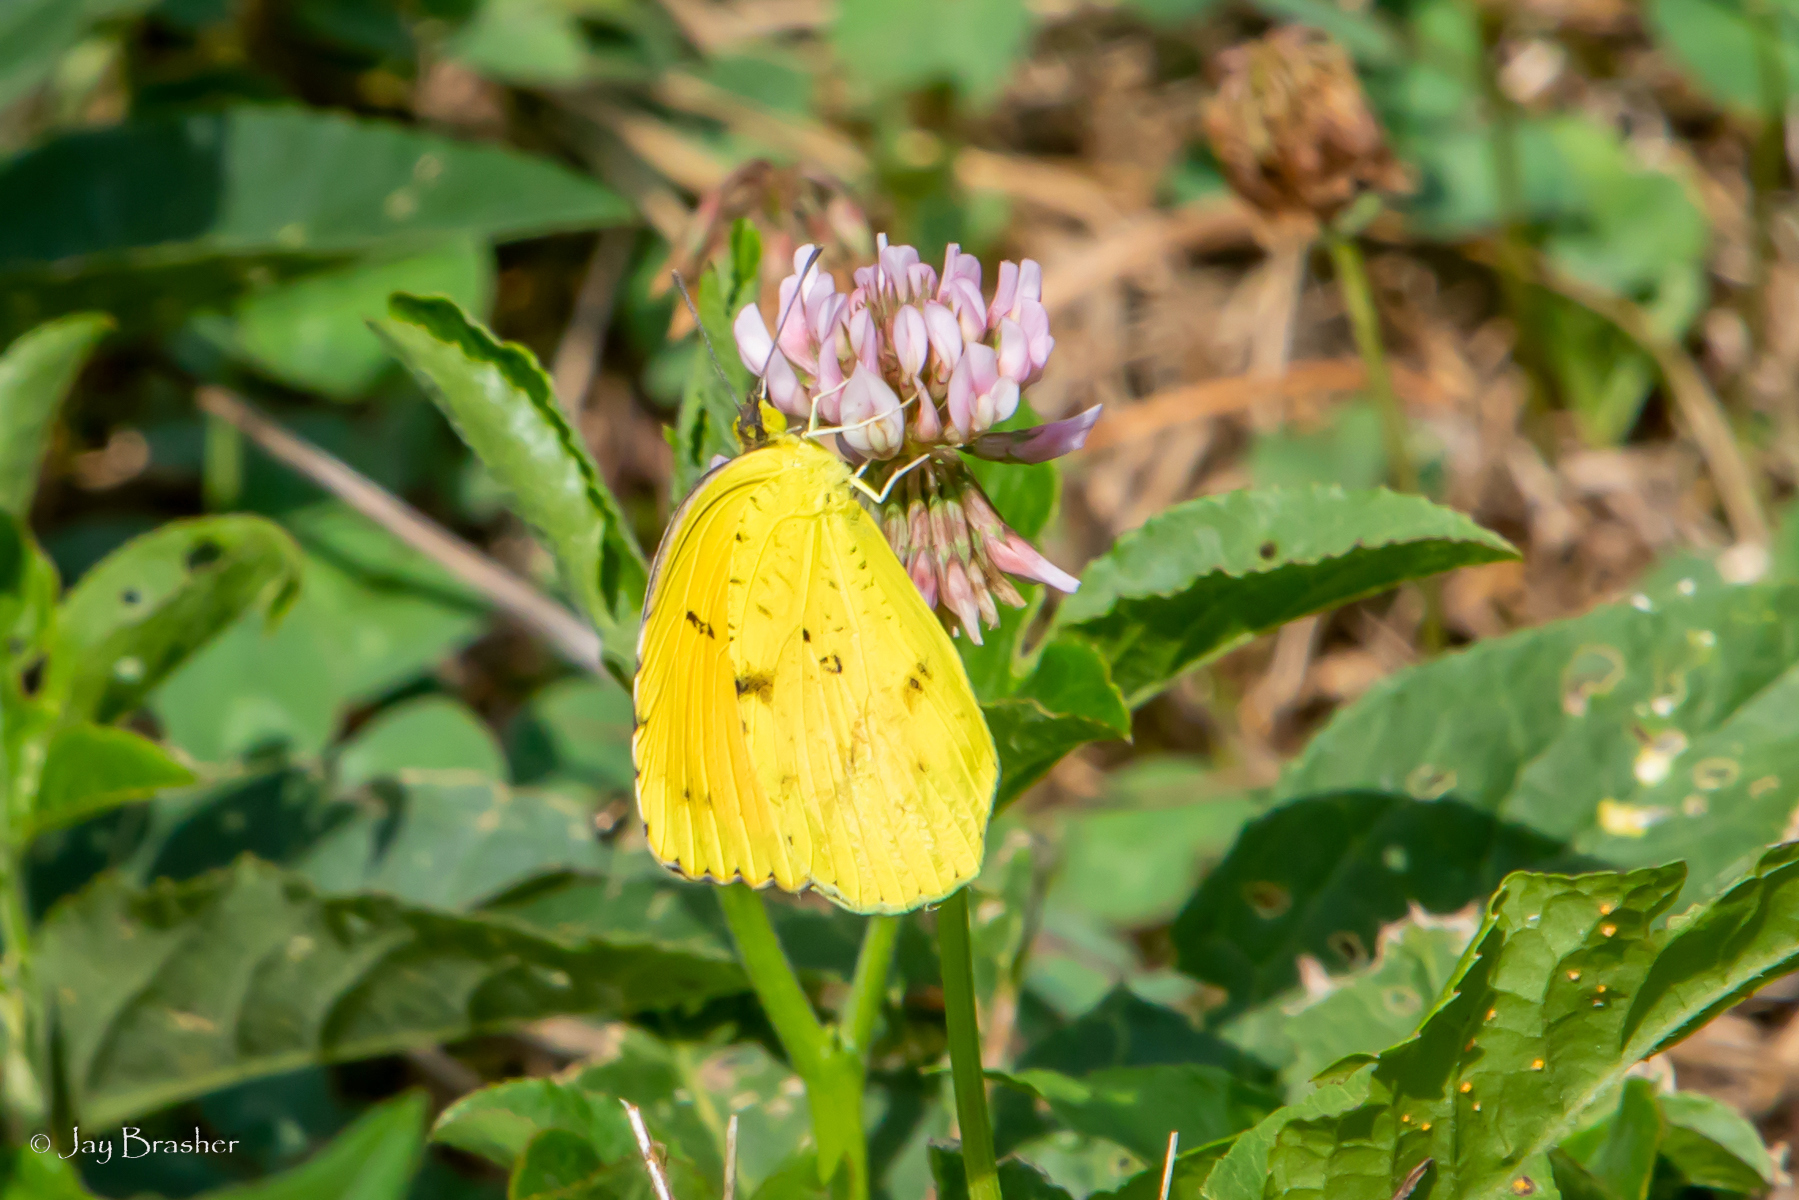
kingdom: Plantae
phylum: Tracheophyta
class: Magnoliopsida
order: Fabales
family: Fabaceae
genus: Trifolium
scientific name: Trifolium pratense
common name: Red clover
